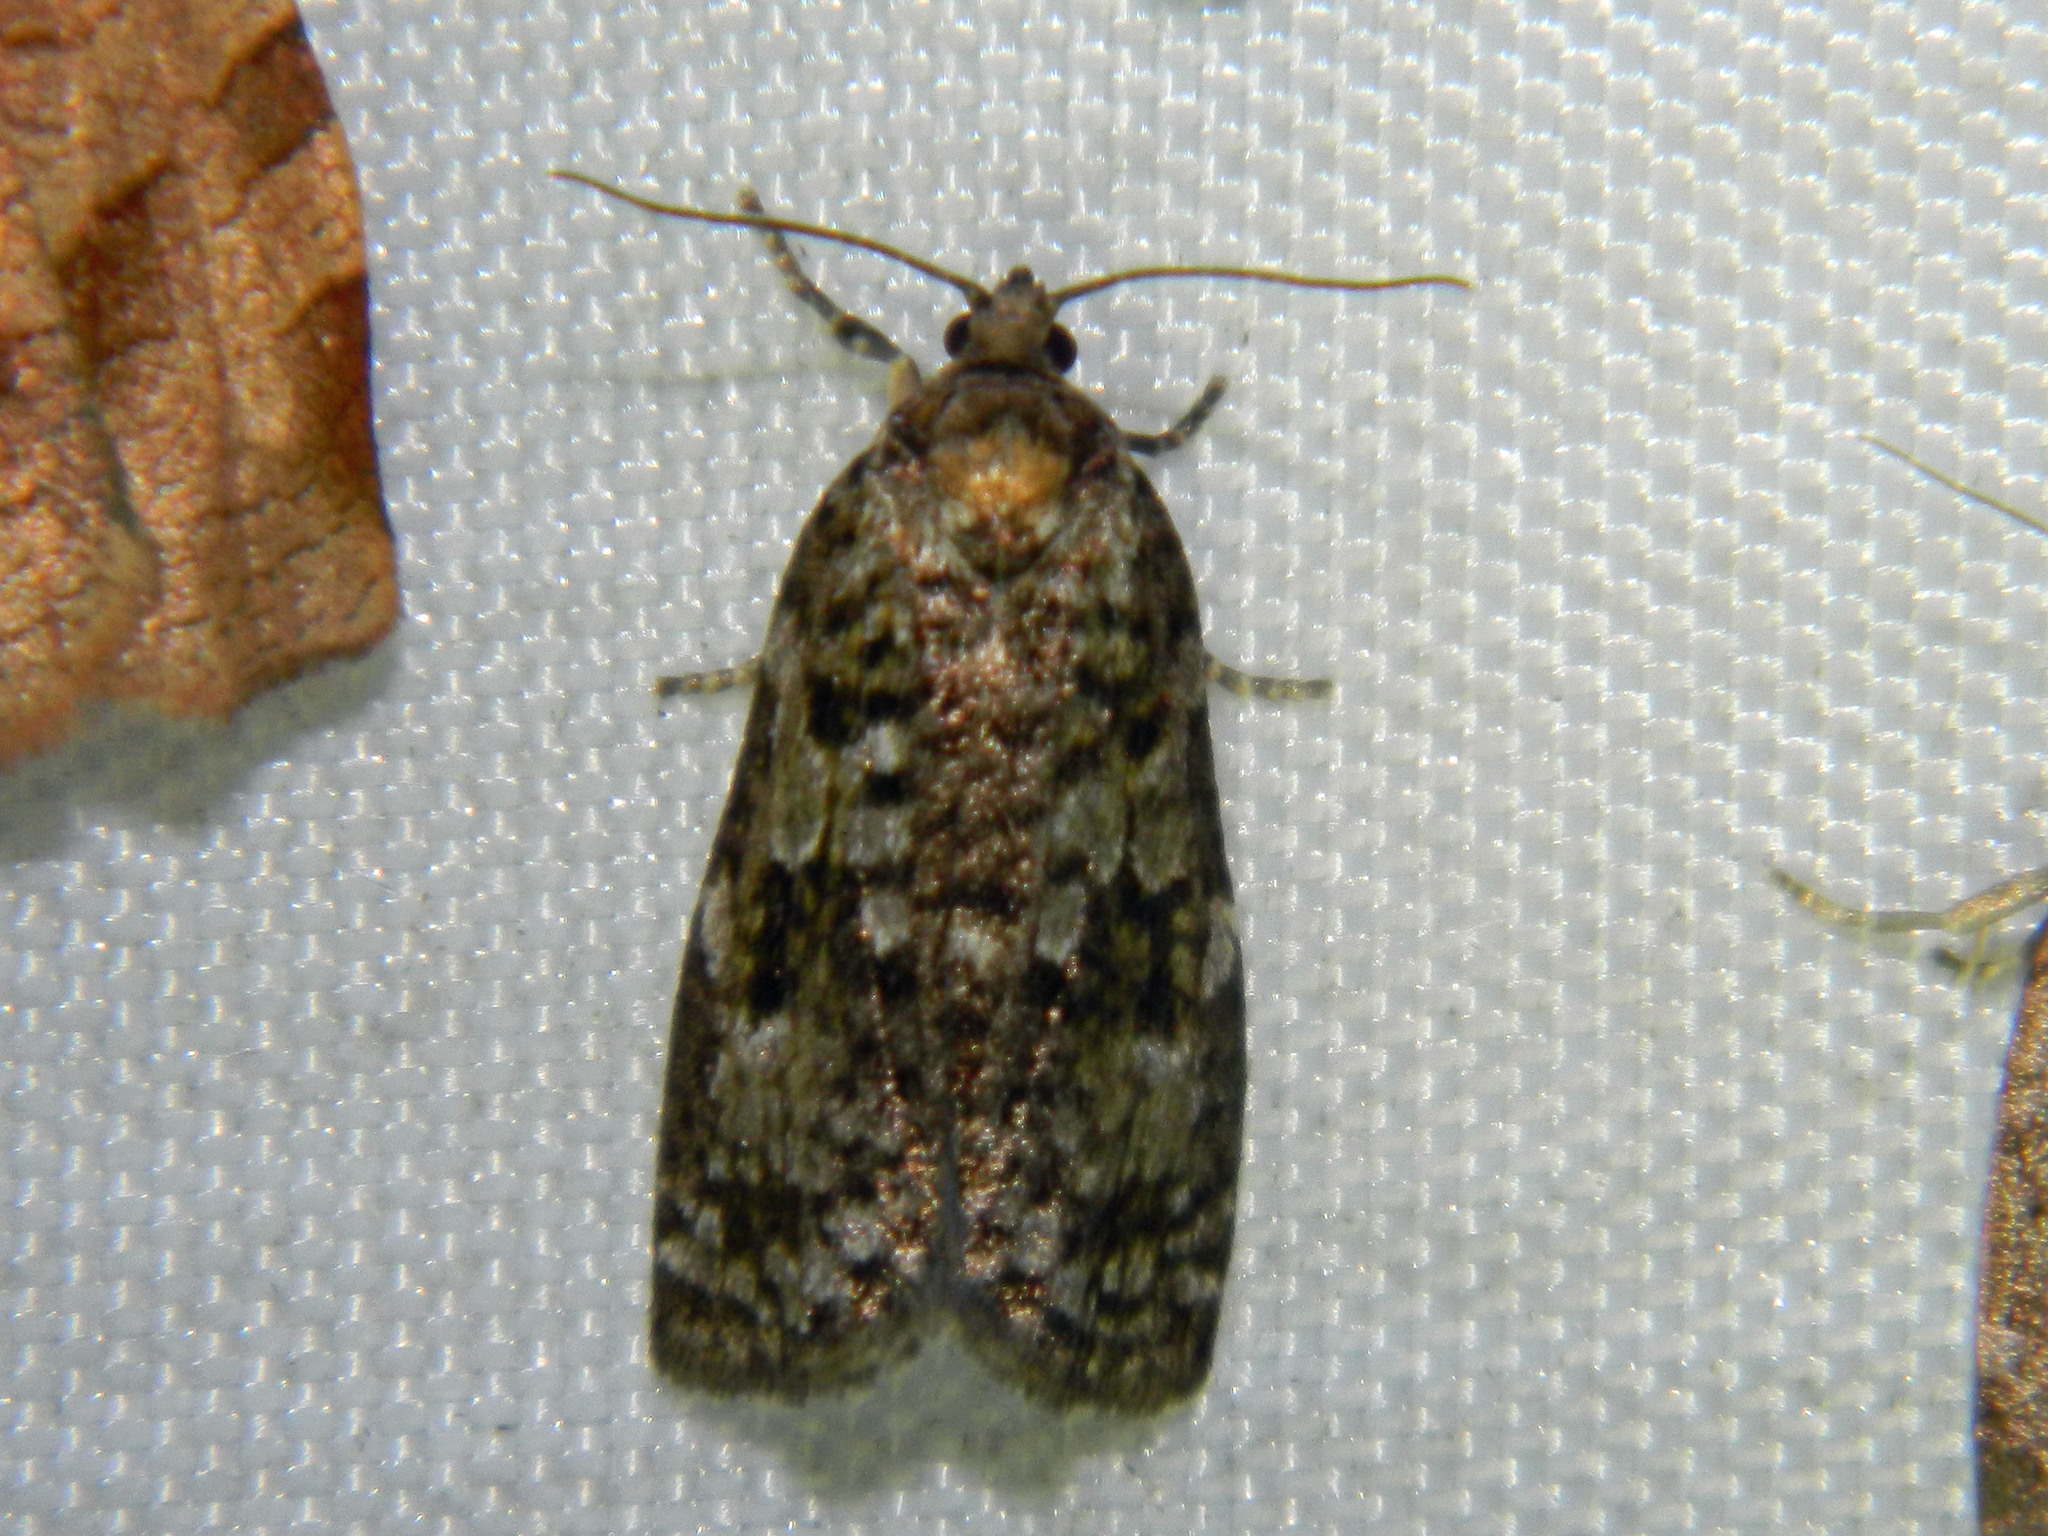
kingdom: Animalia
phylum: Arthropoda
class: Insecta
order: Lepidoptera
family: Tortricidae
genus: Choristoneura
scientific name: Choristoneura fumiferana
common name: Spruce budworm
